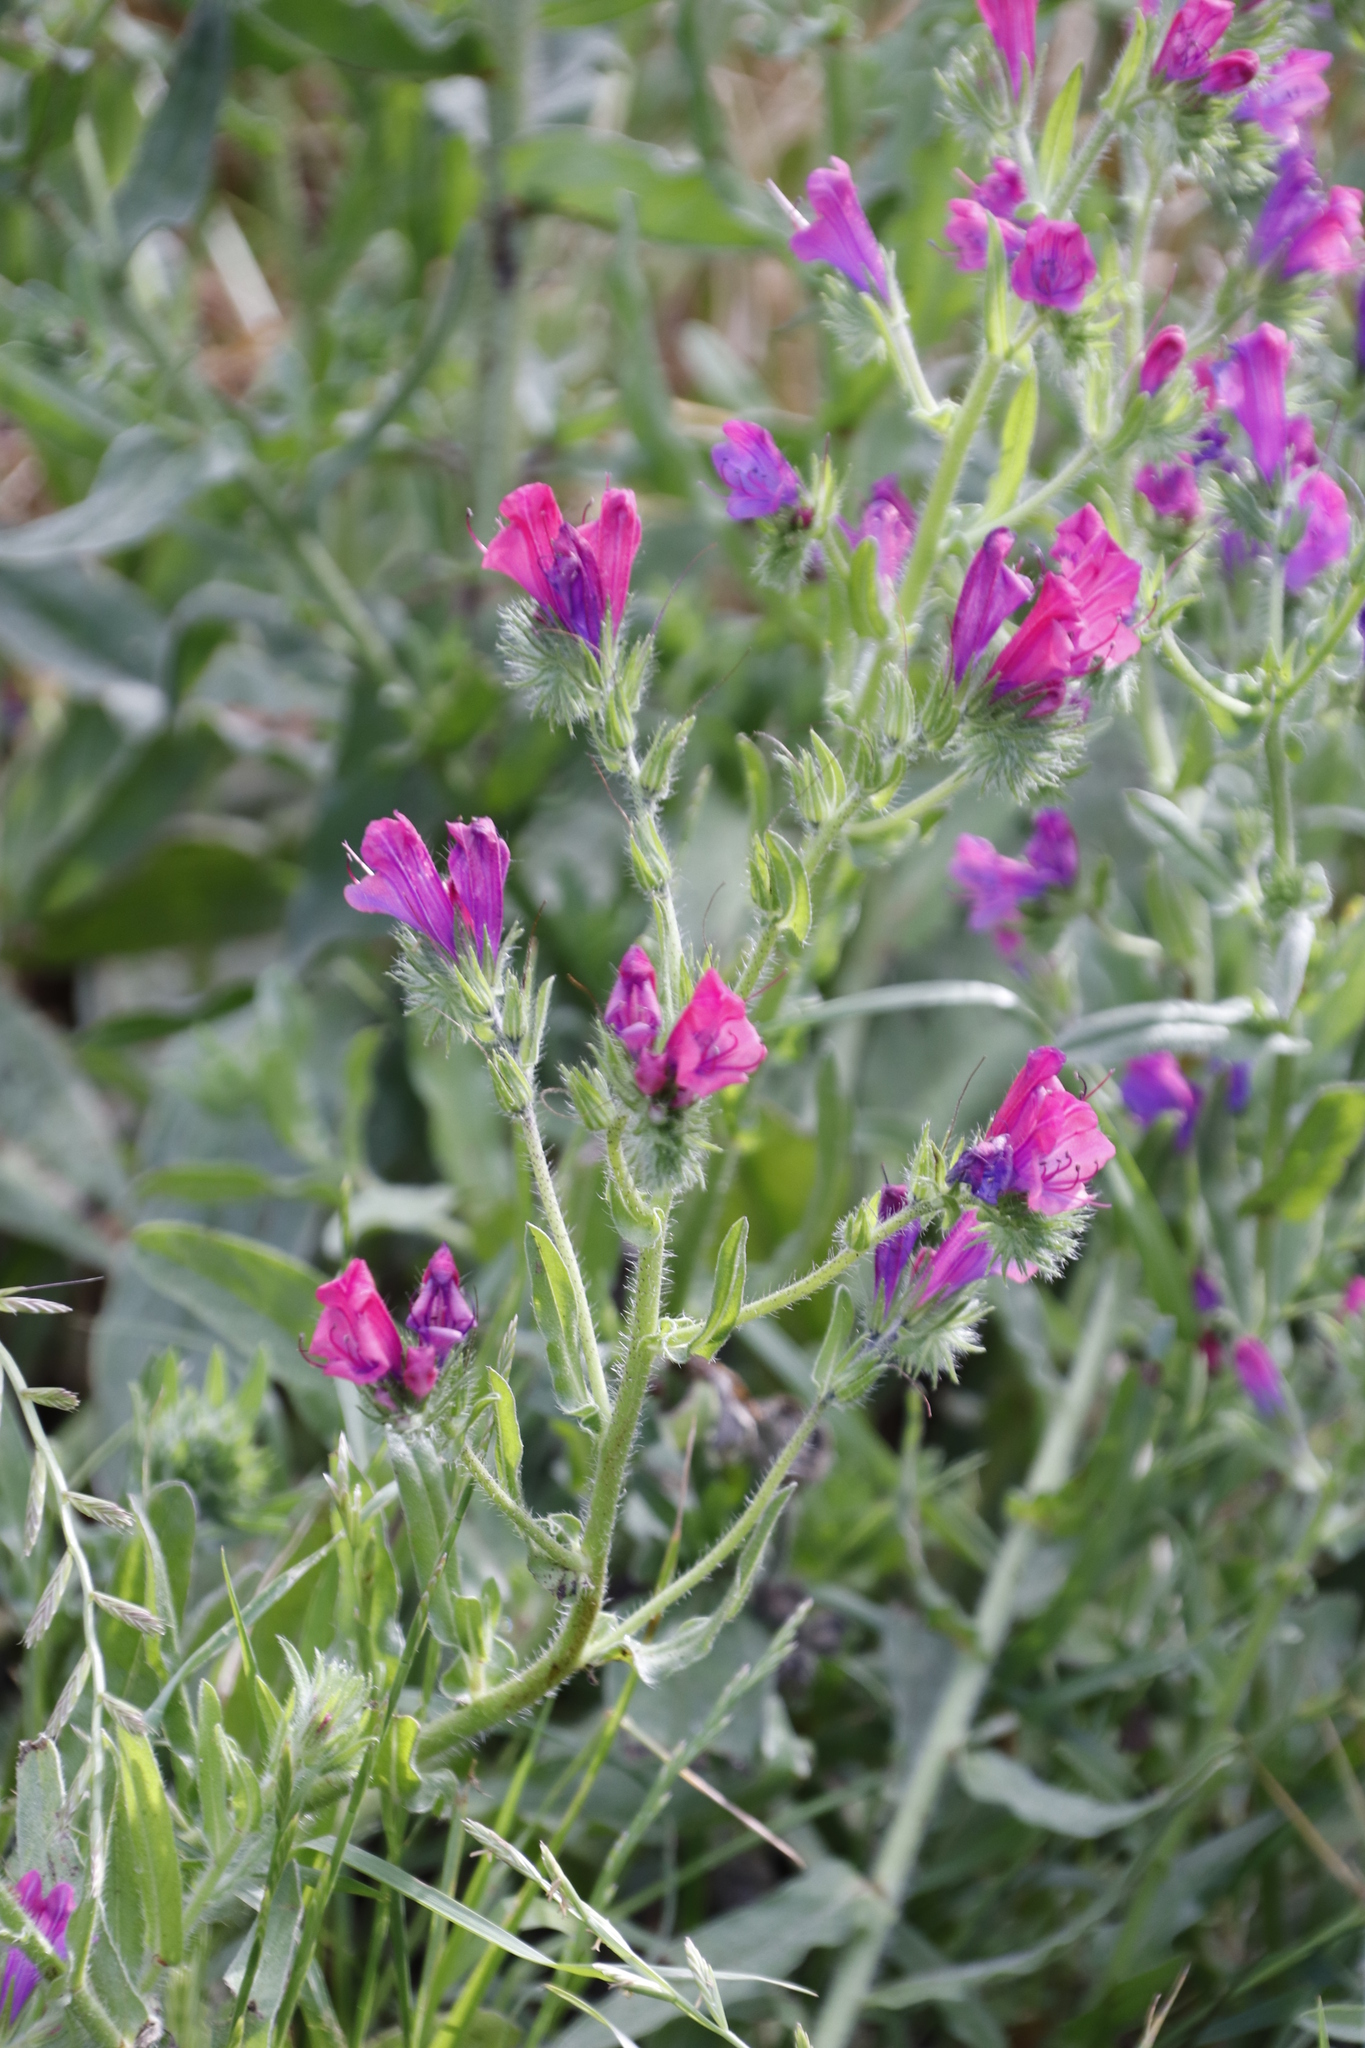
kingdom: Plantae
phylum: Tracheophyta
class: Magnoliopsida
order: Boraginales
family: Boraginaceae
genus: Echium
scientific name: Echium plantagineum
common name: Purple viper's-bugloss
